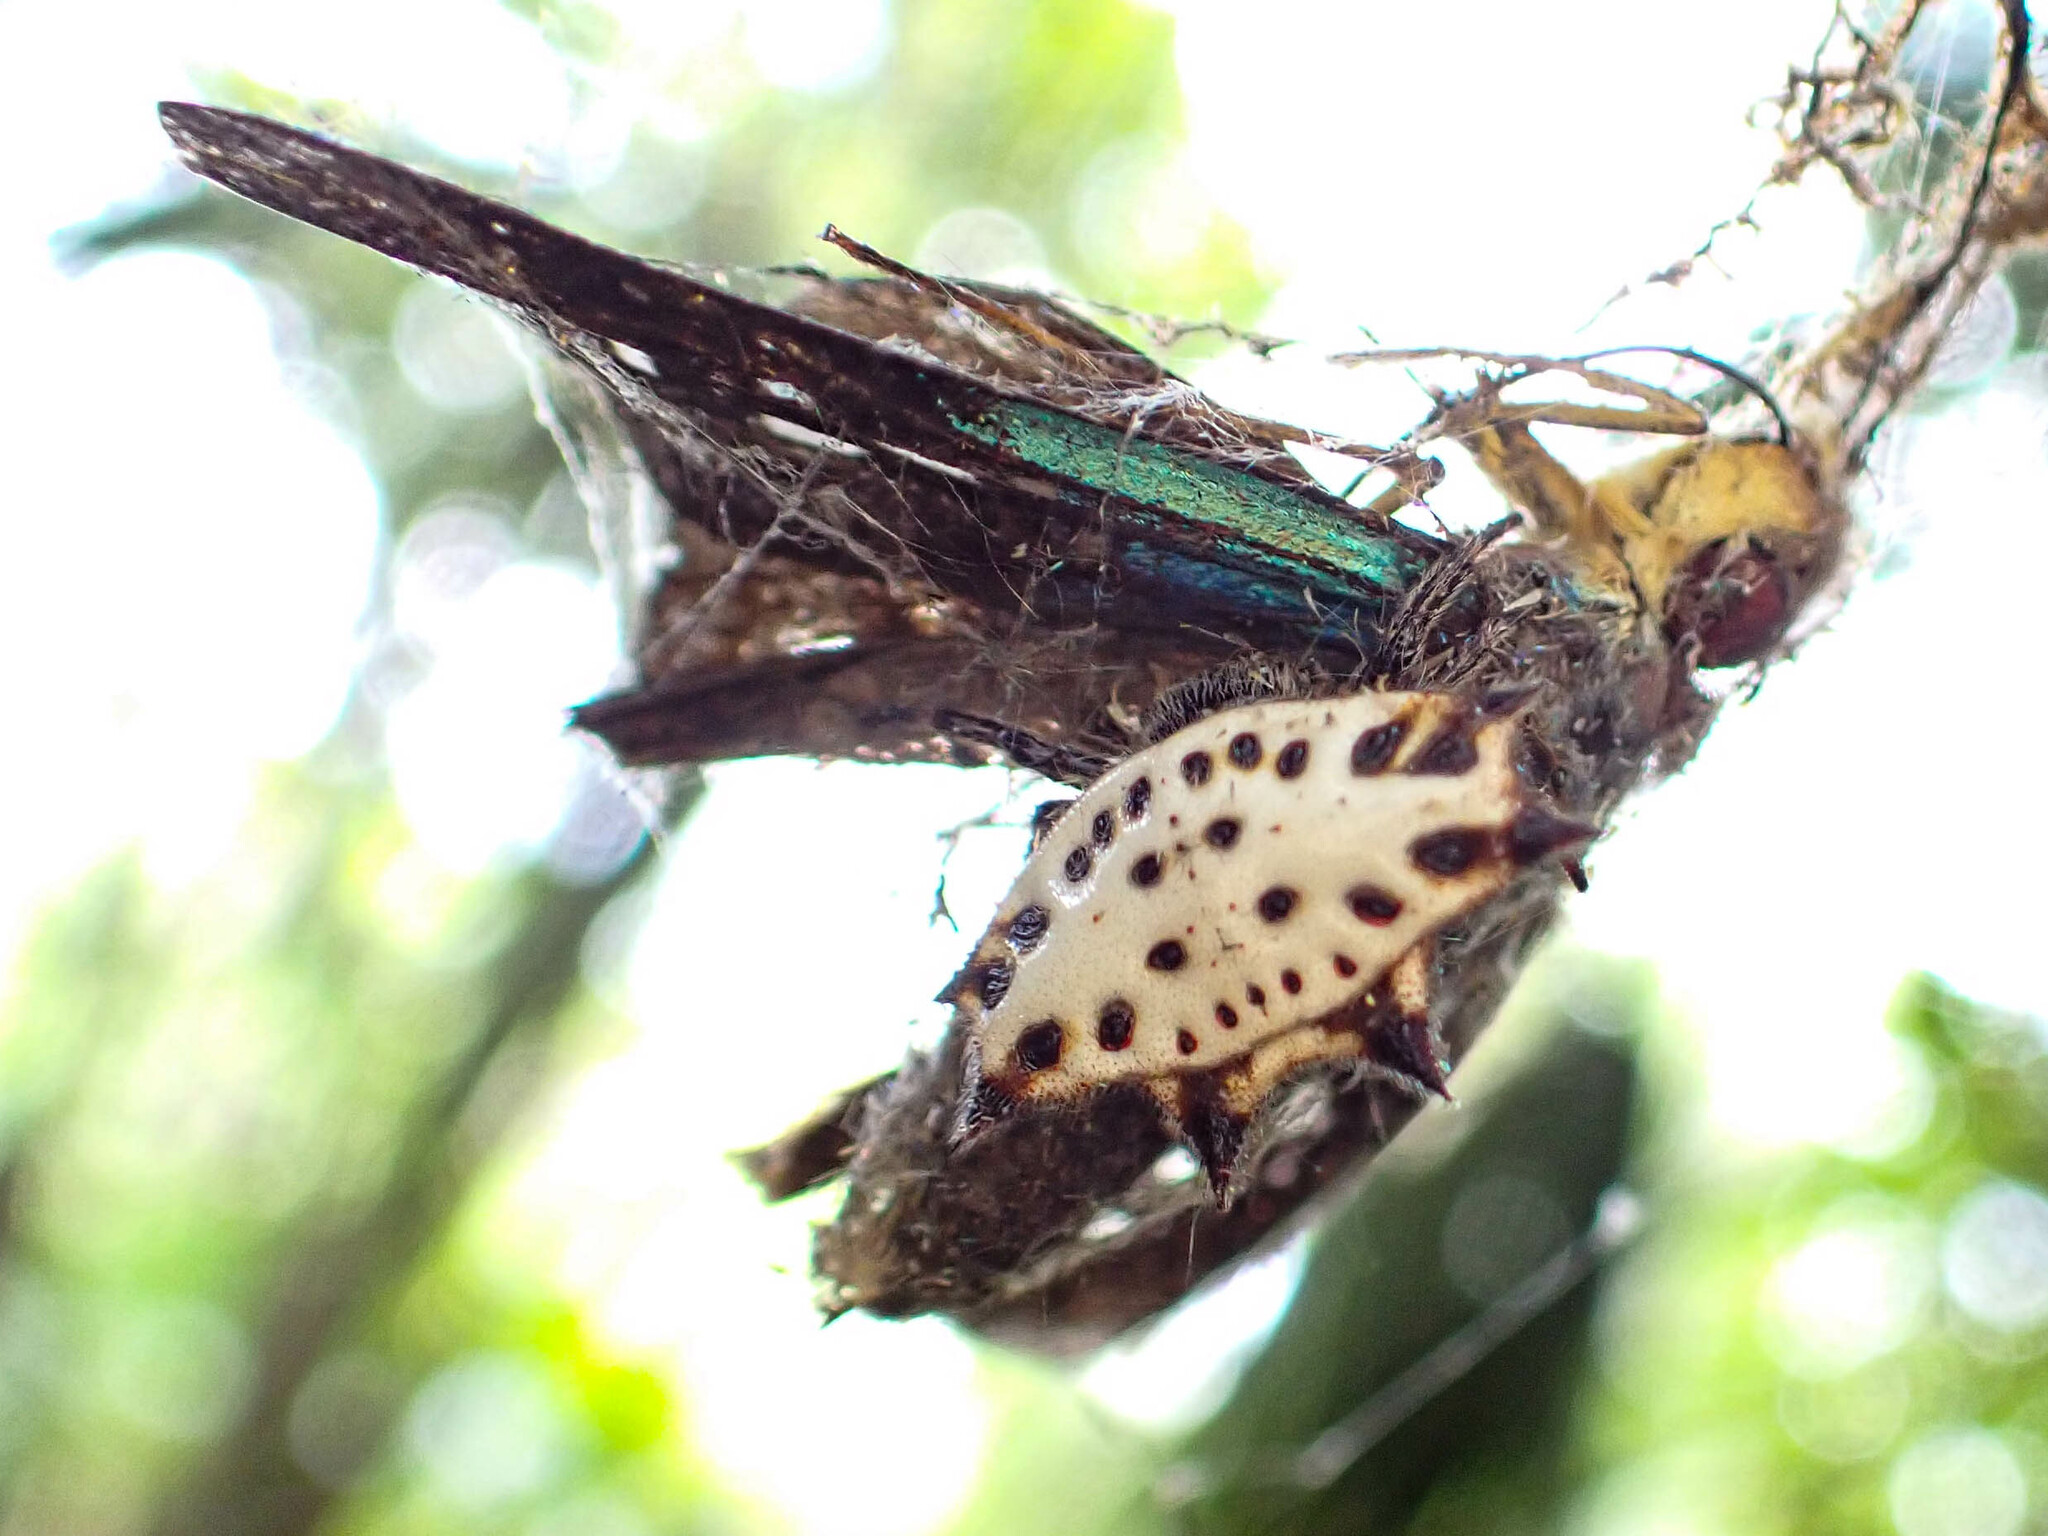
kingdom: Animalia
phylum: Arthropoda
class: Arachnida
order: Araneae
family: Araneidae
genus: Gasteracantha
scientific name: Gasteracantha cancriformis
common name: Orb weavers
